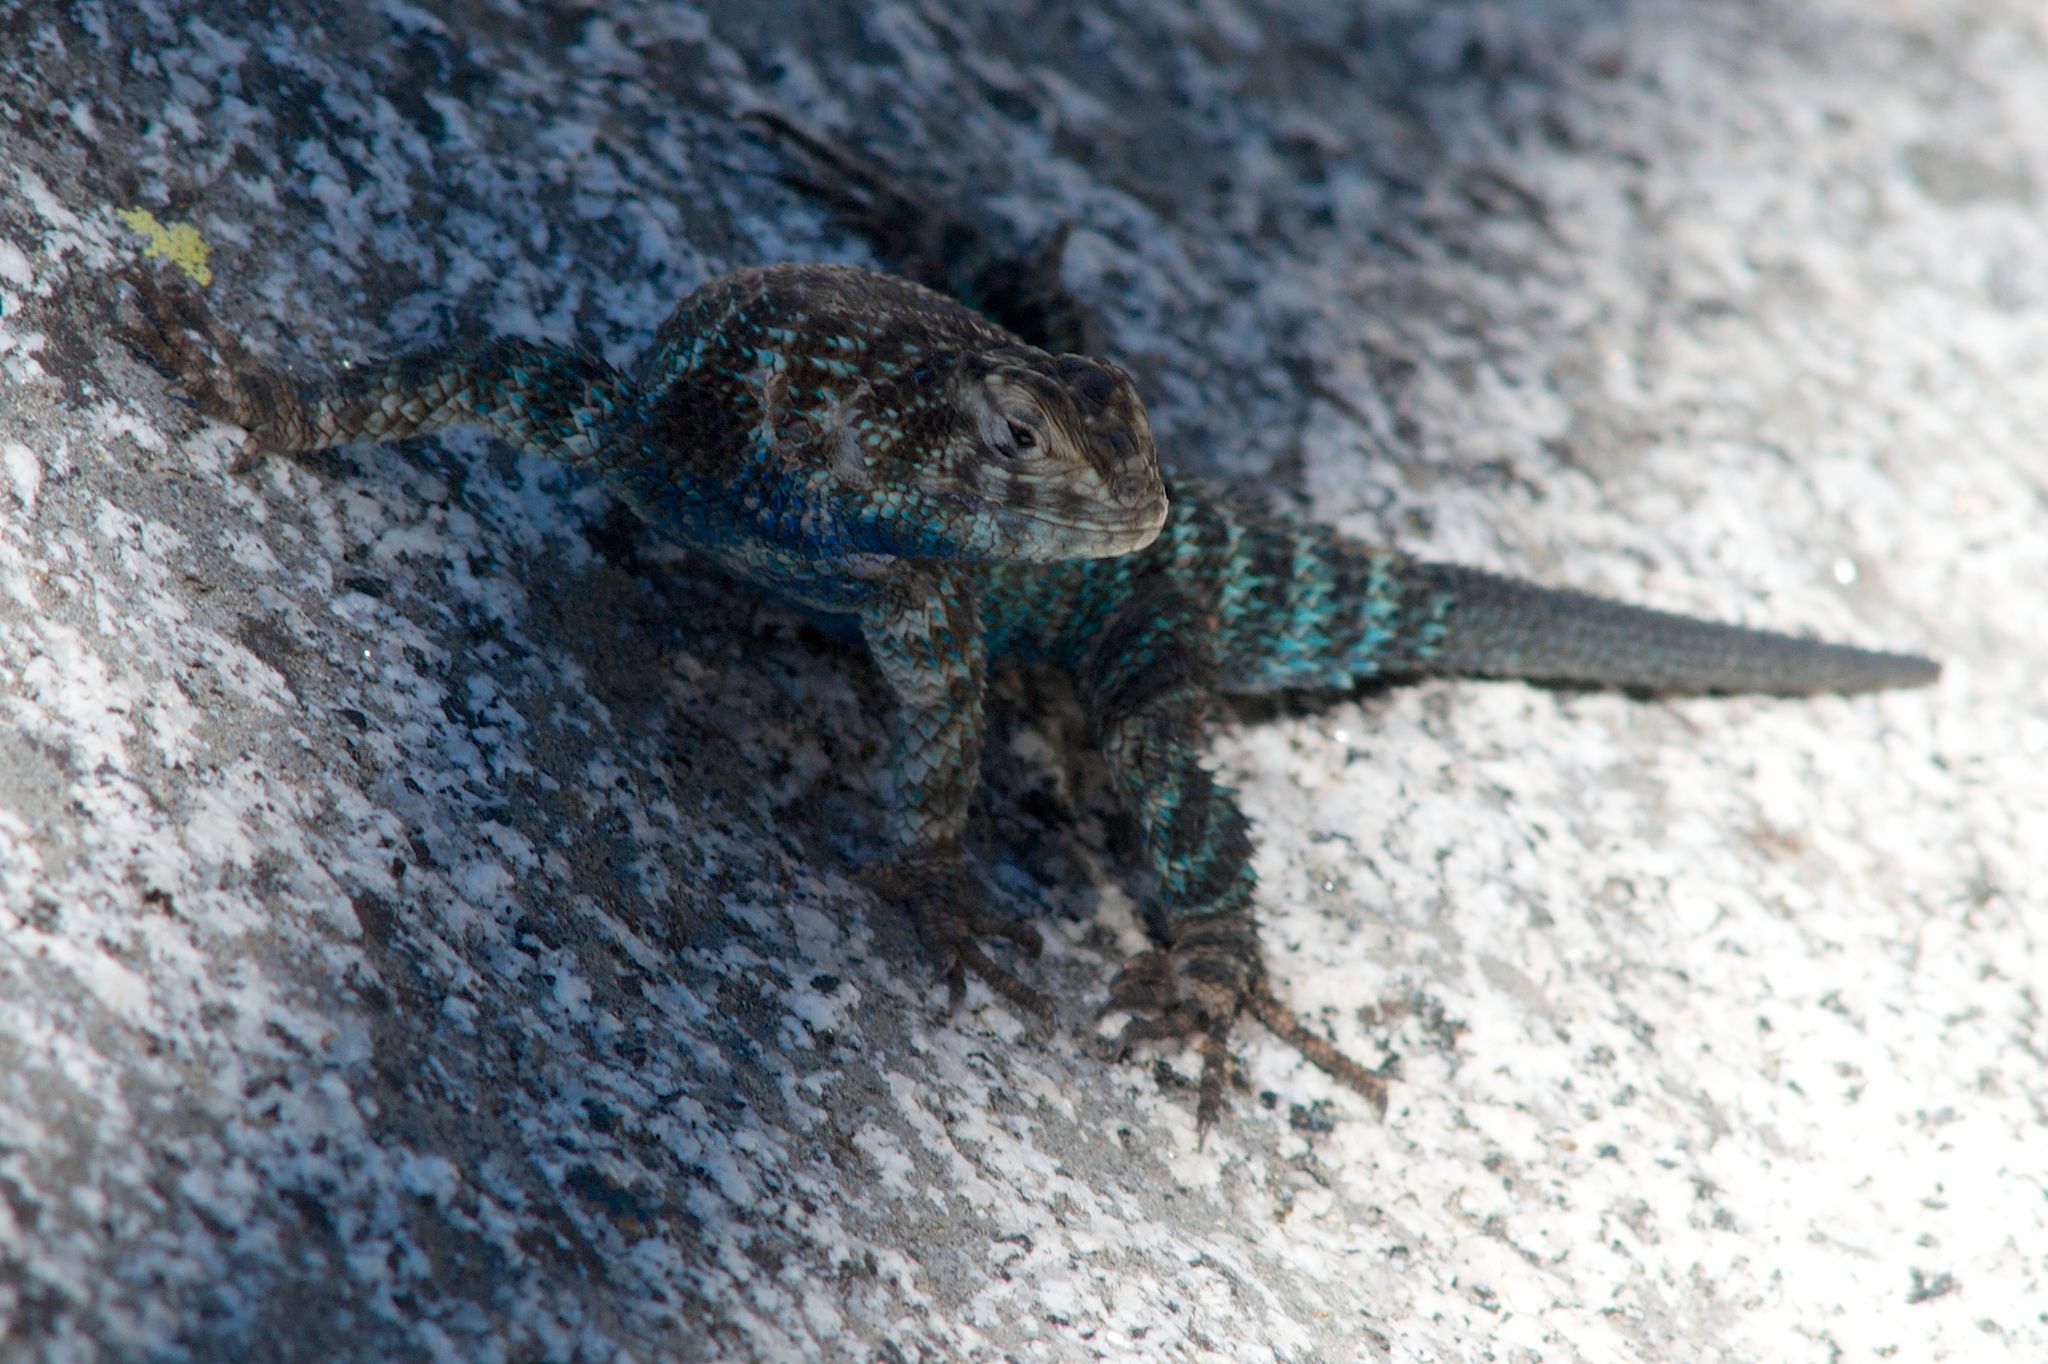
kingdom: Animalia
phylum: Chordata
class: Squamata
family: Phrynosomatidae
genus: Sceloporus
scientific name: Sceloporus orcutti
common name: Granite spiny lizard
